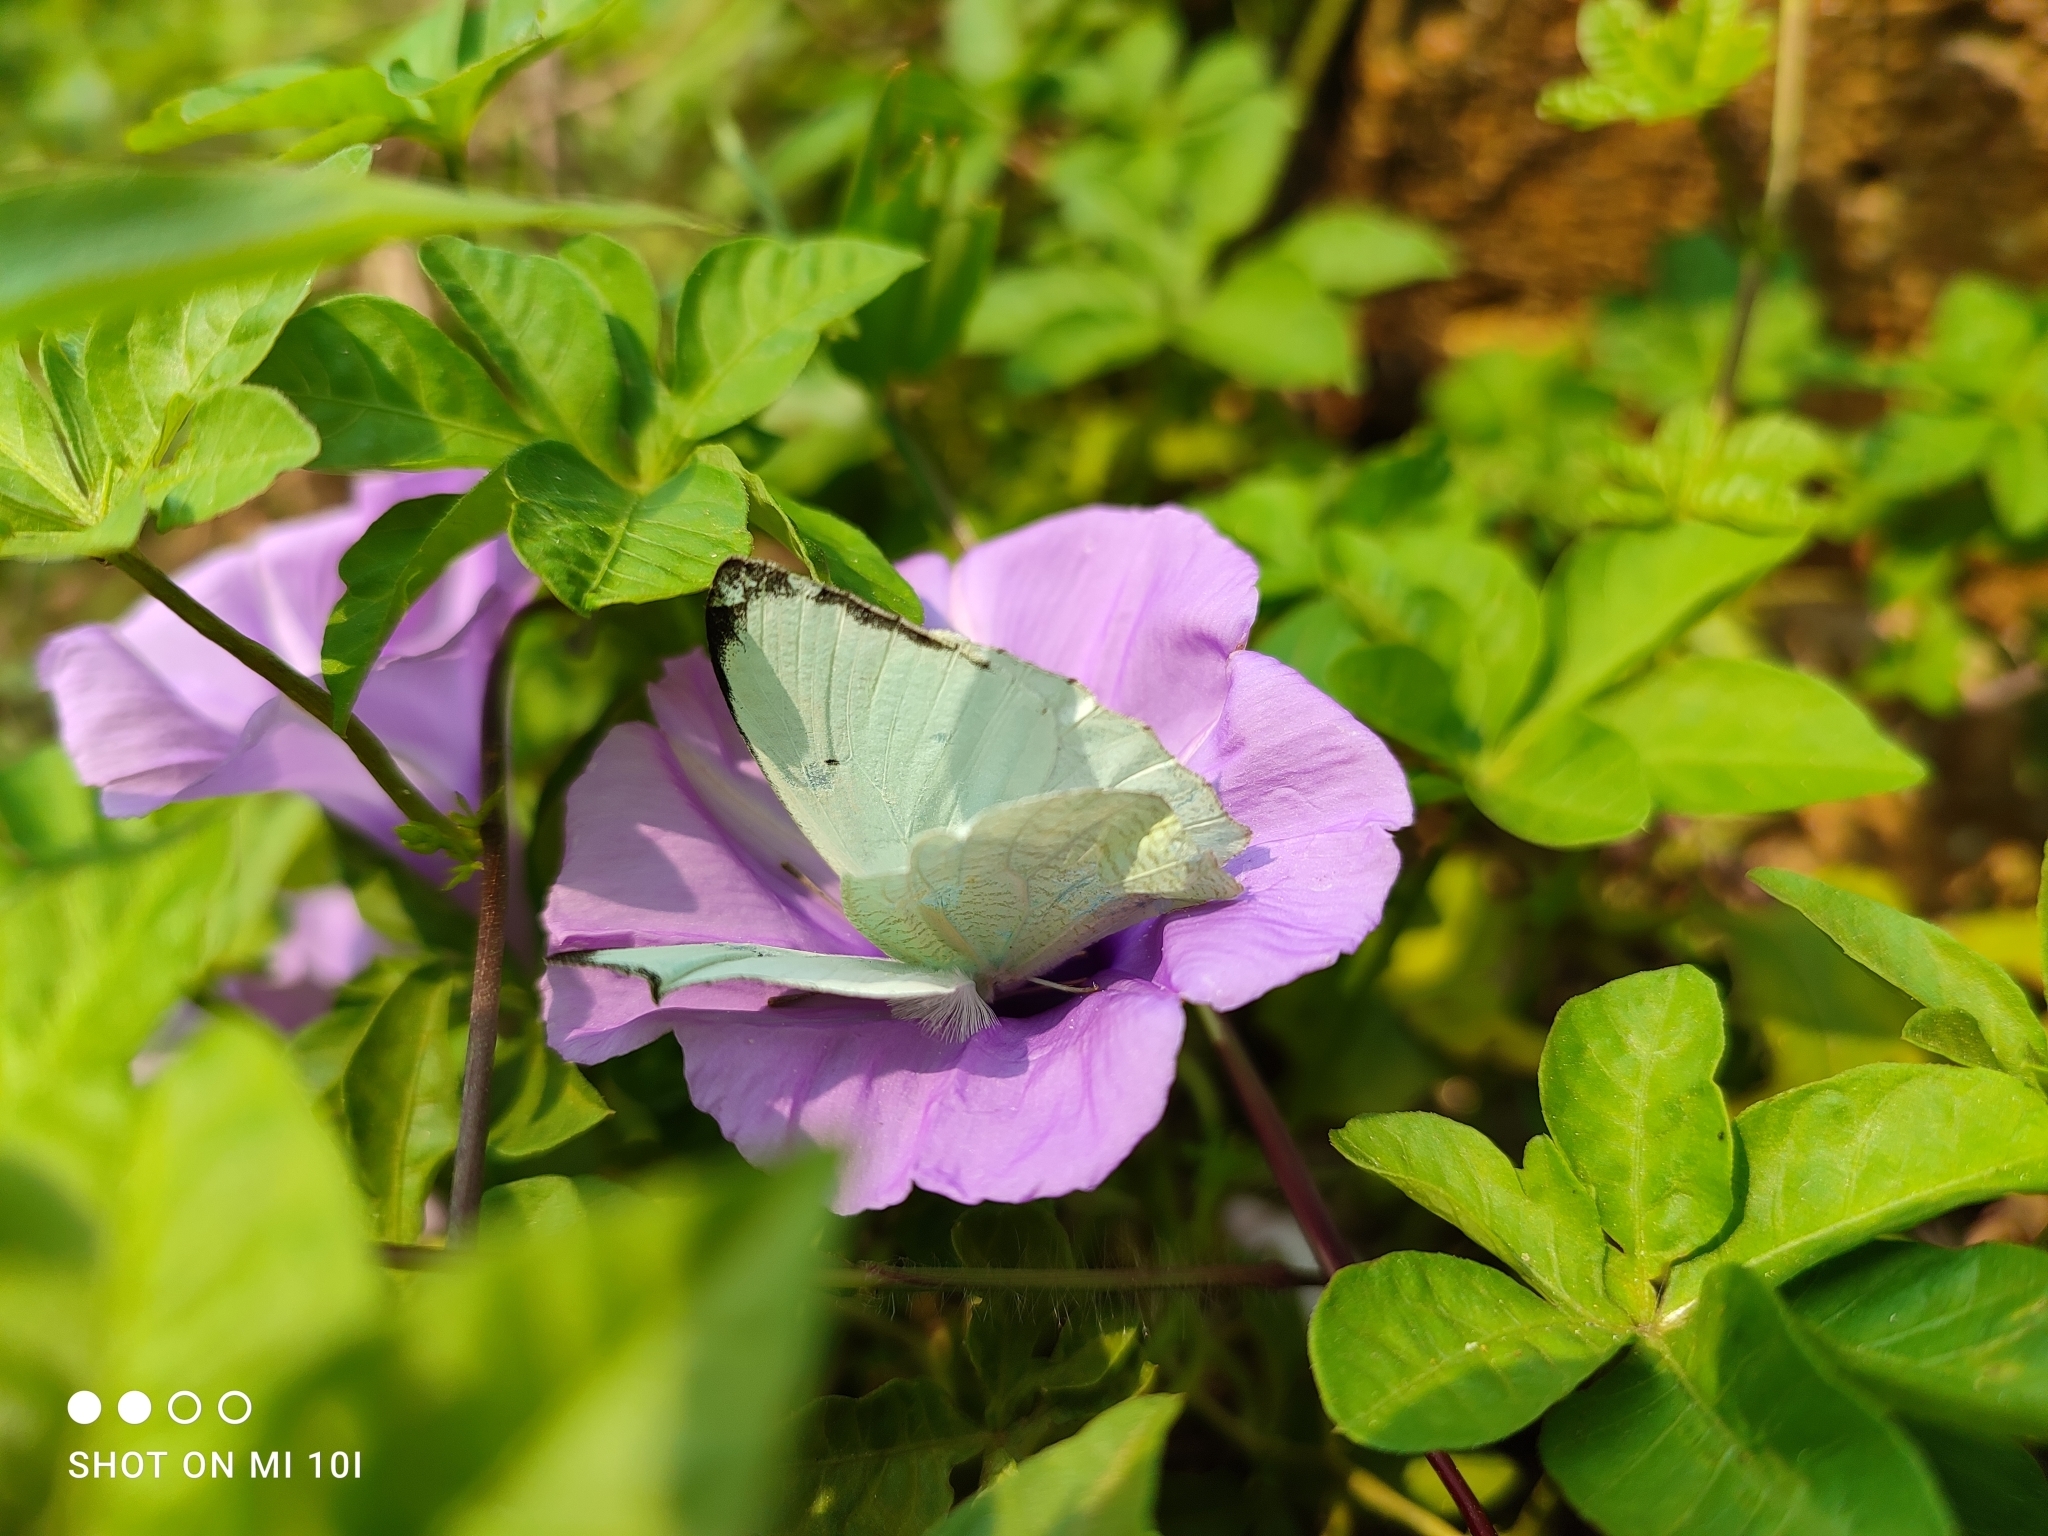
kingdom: Animalia
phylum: Arthropoda
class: Insecta
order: Lepidoptera
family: Pieridae
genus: Catopsilia
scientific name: Catopsilia pyranthe
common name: Mottled emigrant
